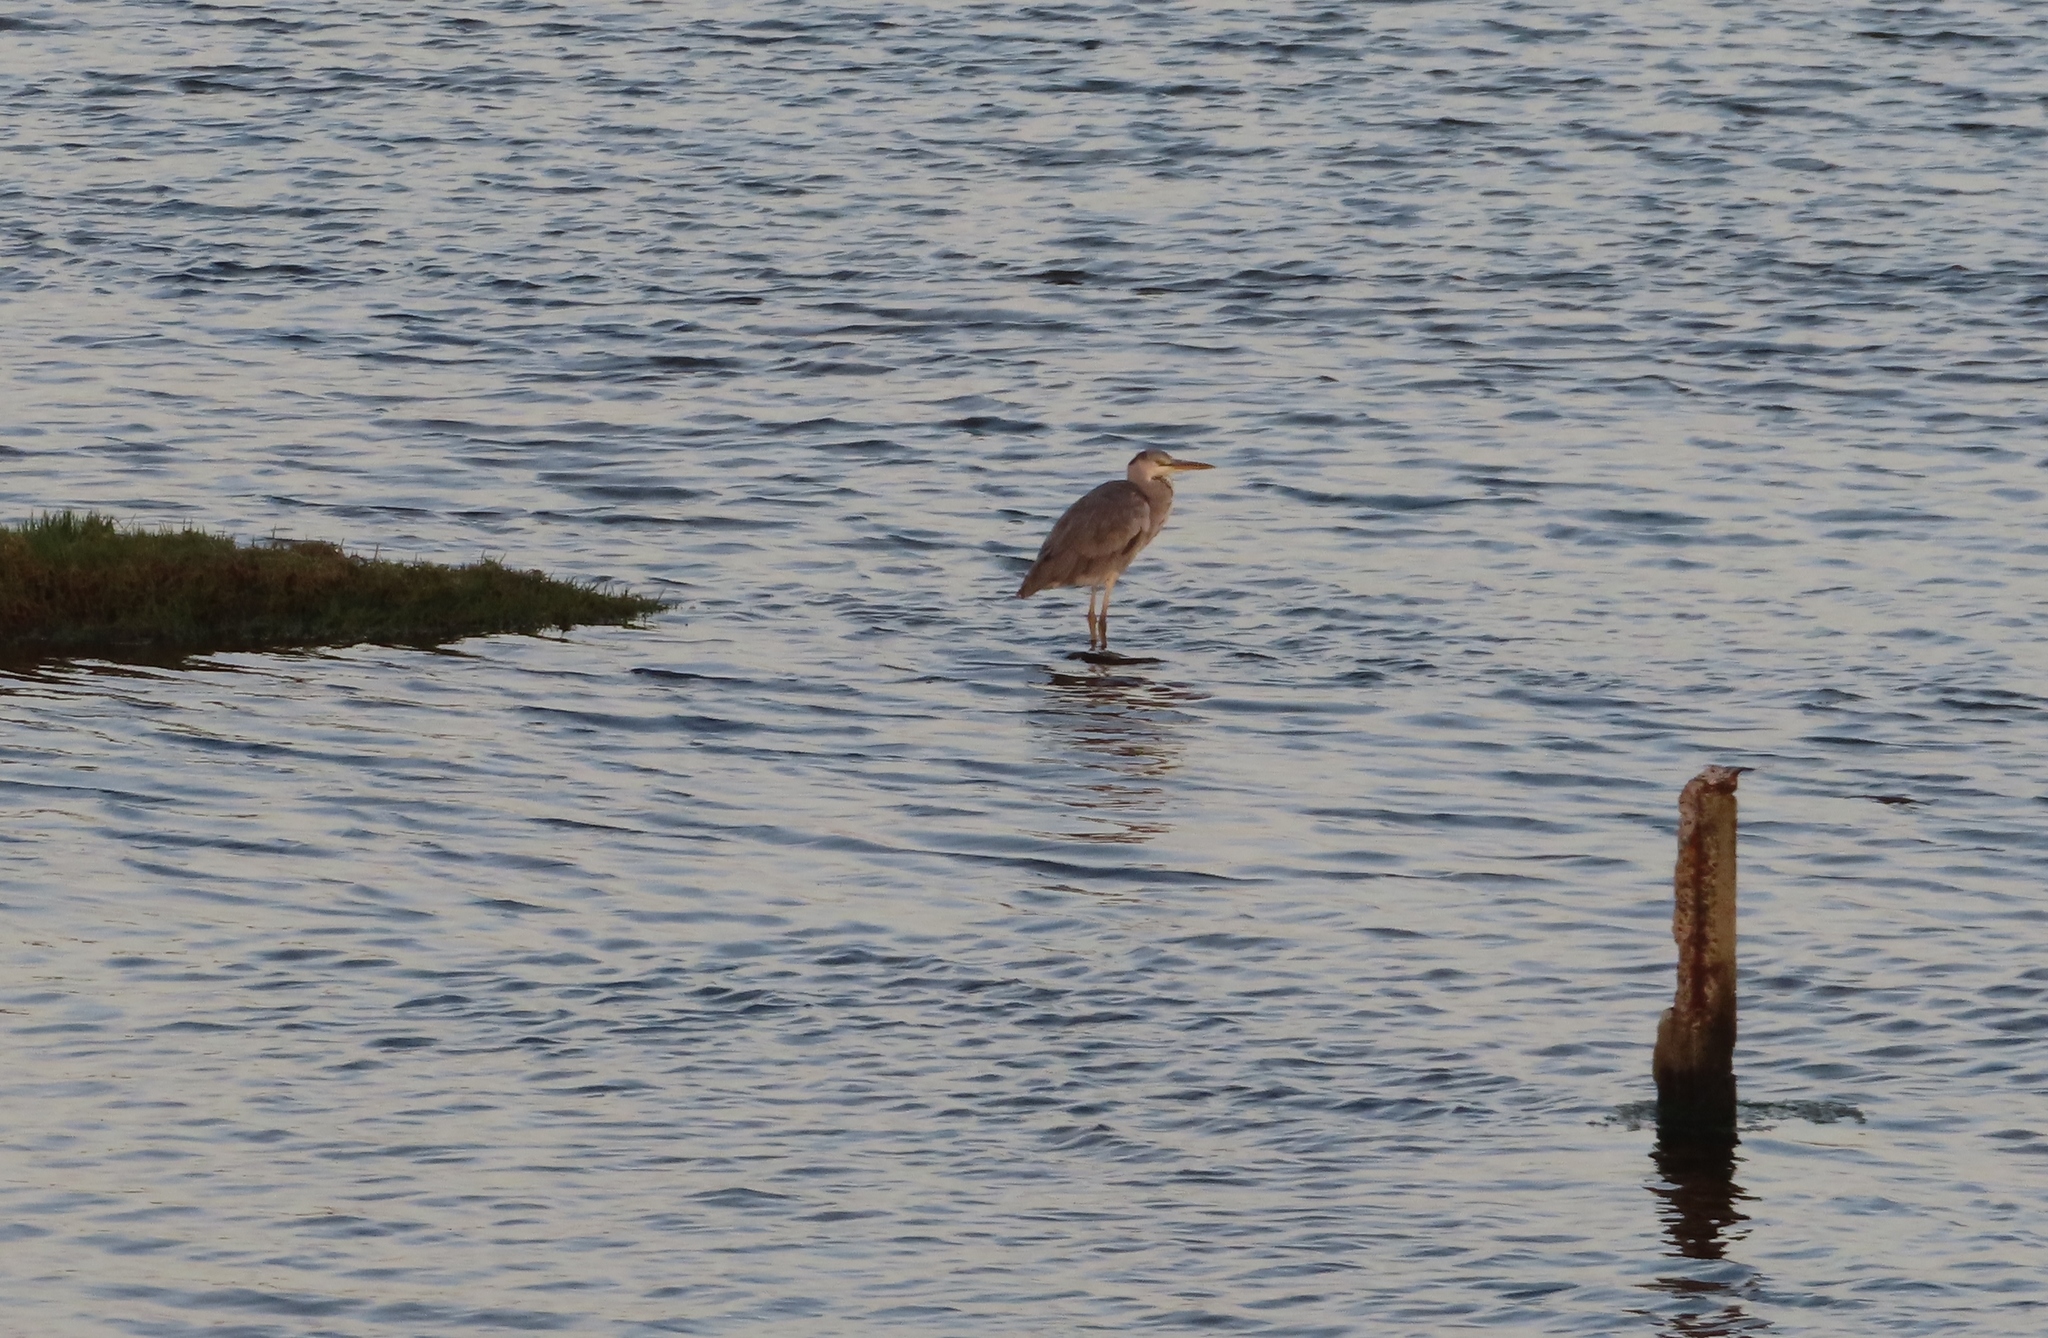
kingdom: Animalia
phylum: Chordata
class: Aves
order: Pelecaniformes
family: Ardeidae
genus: Ardea
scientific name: Ardea cinerea
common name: Grey heron
